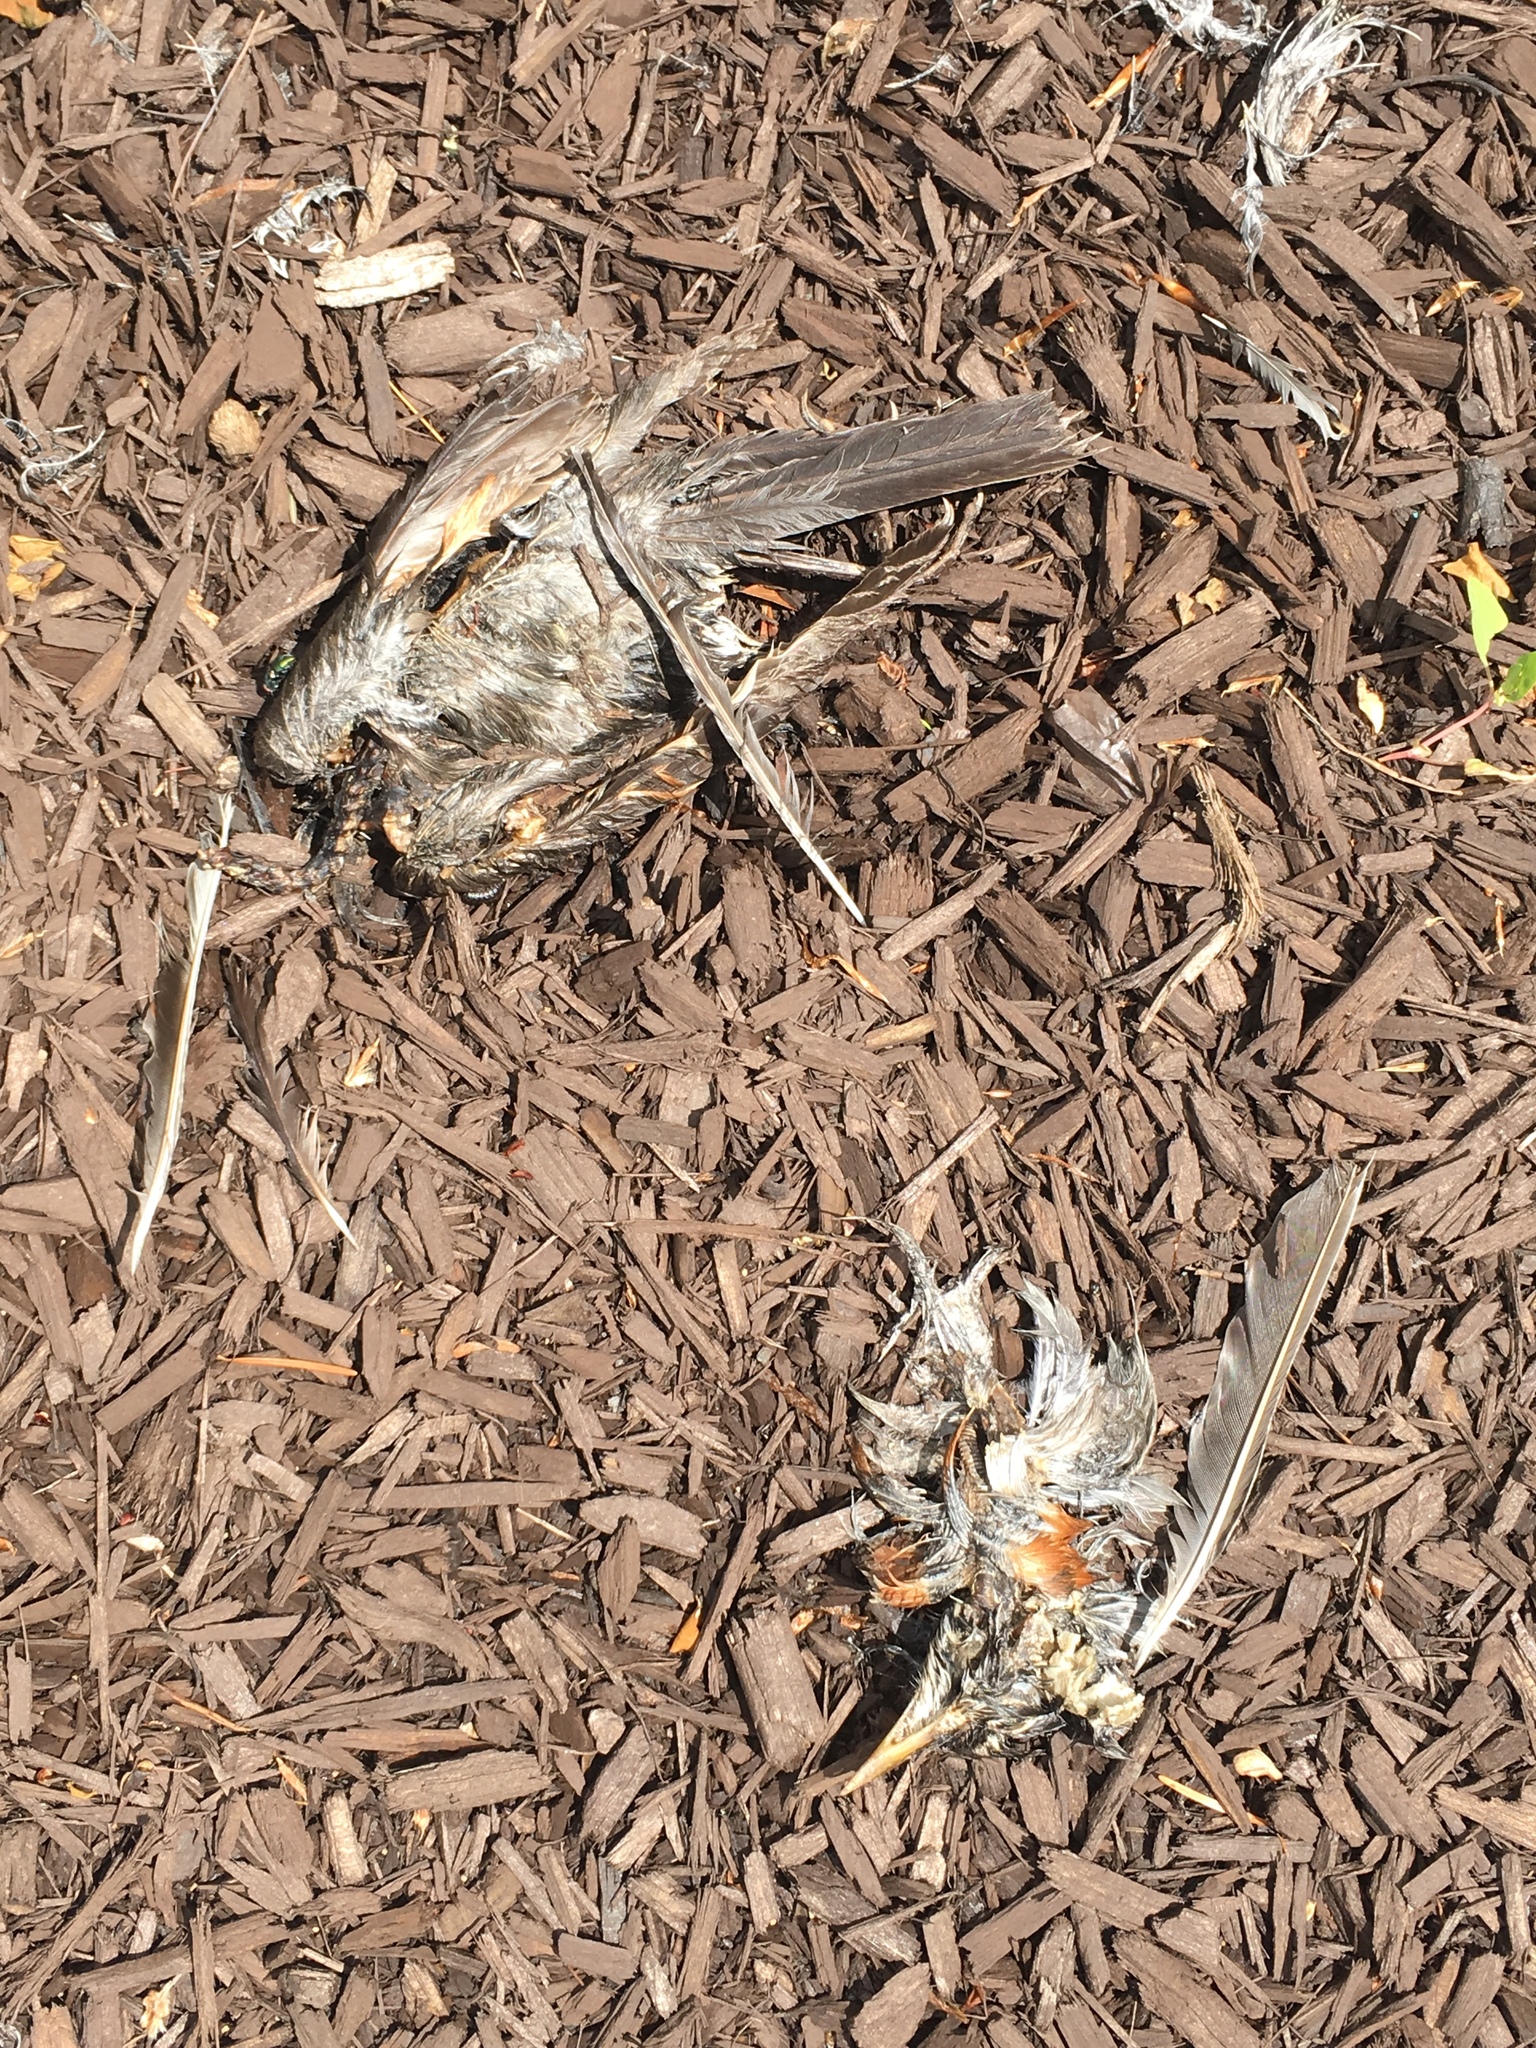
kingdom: Animalia
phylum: Chordata
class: Aves
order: Passeriformes
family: Turdidae
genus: Turdus
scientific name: Turdus migratorius
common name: American robin
